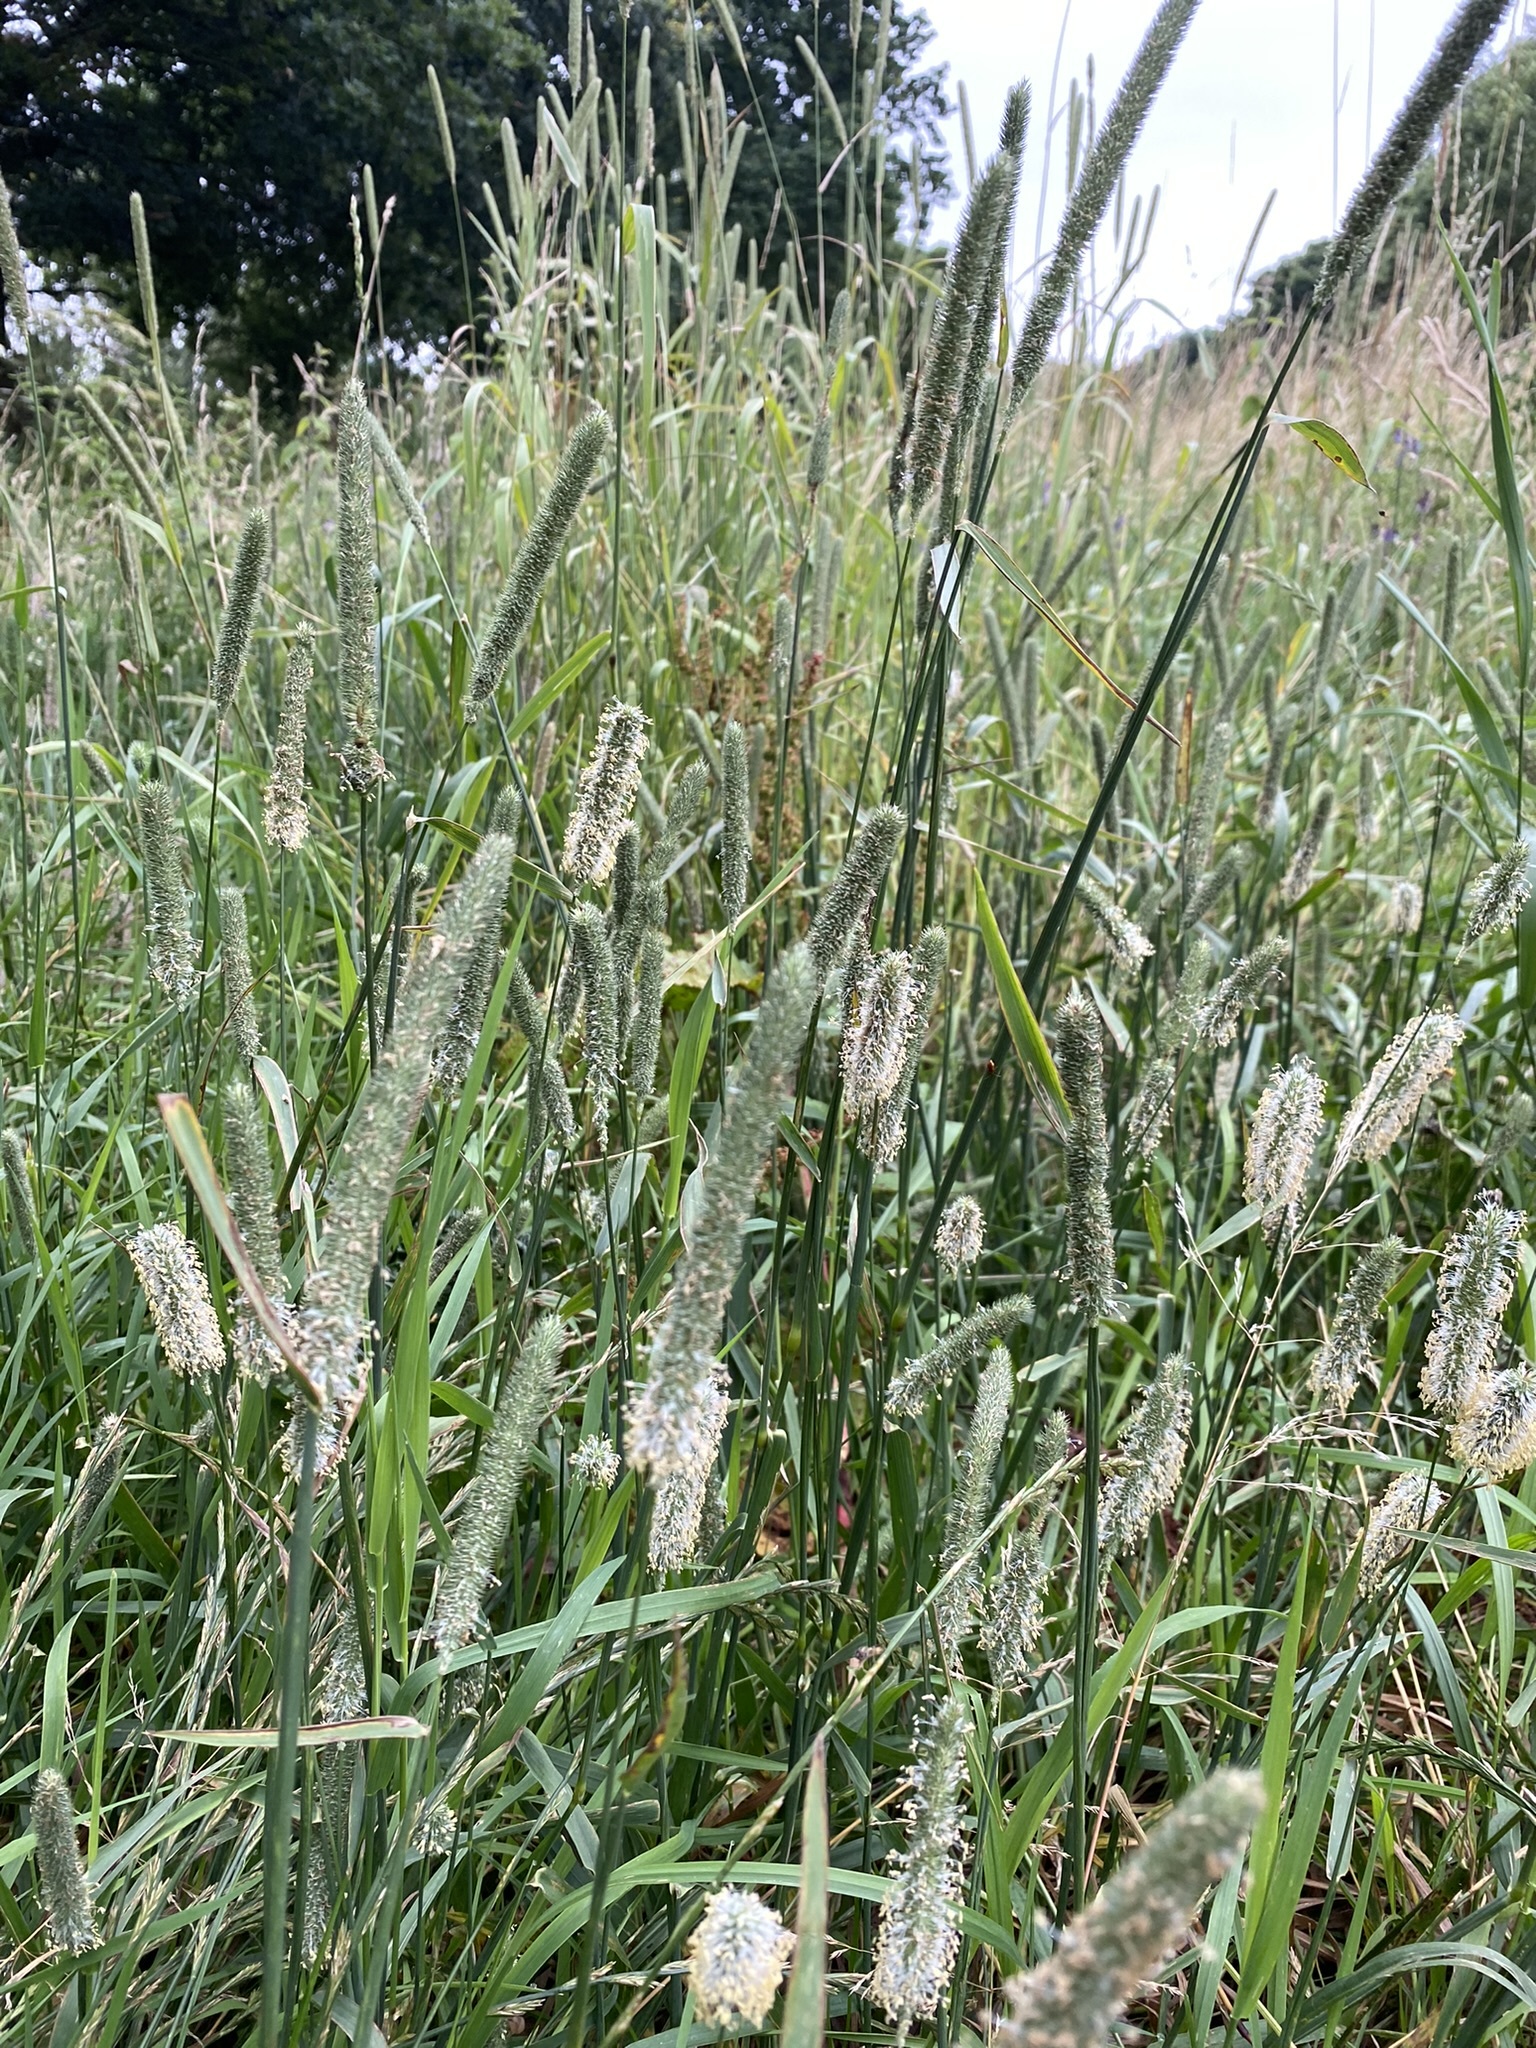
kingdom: Plantae
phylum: Tracheophyta
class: Liliopsida
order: Poales
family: Poaceae
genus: Phleum
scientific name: Phleum pratense
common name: Timothy grass
